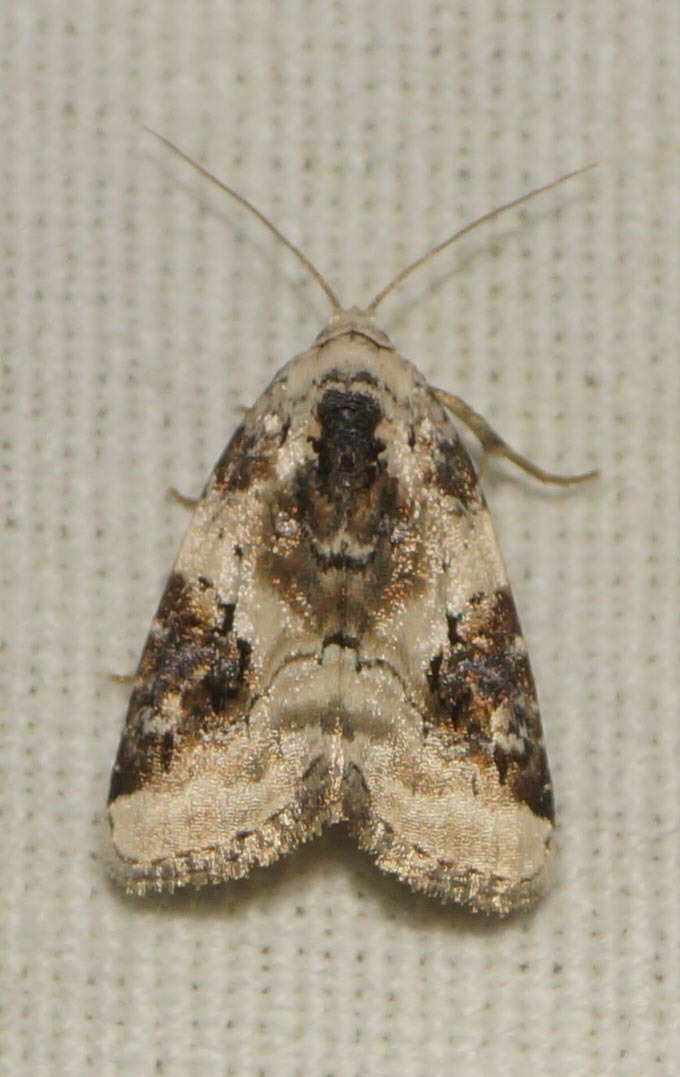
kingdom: Animalia
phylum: Arthropoda
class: Insecta
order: Lepidoptera
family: Noctuidae
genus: Pseudeustrotia
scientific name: Pseudeustrotia candidula
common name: Shining marbled
